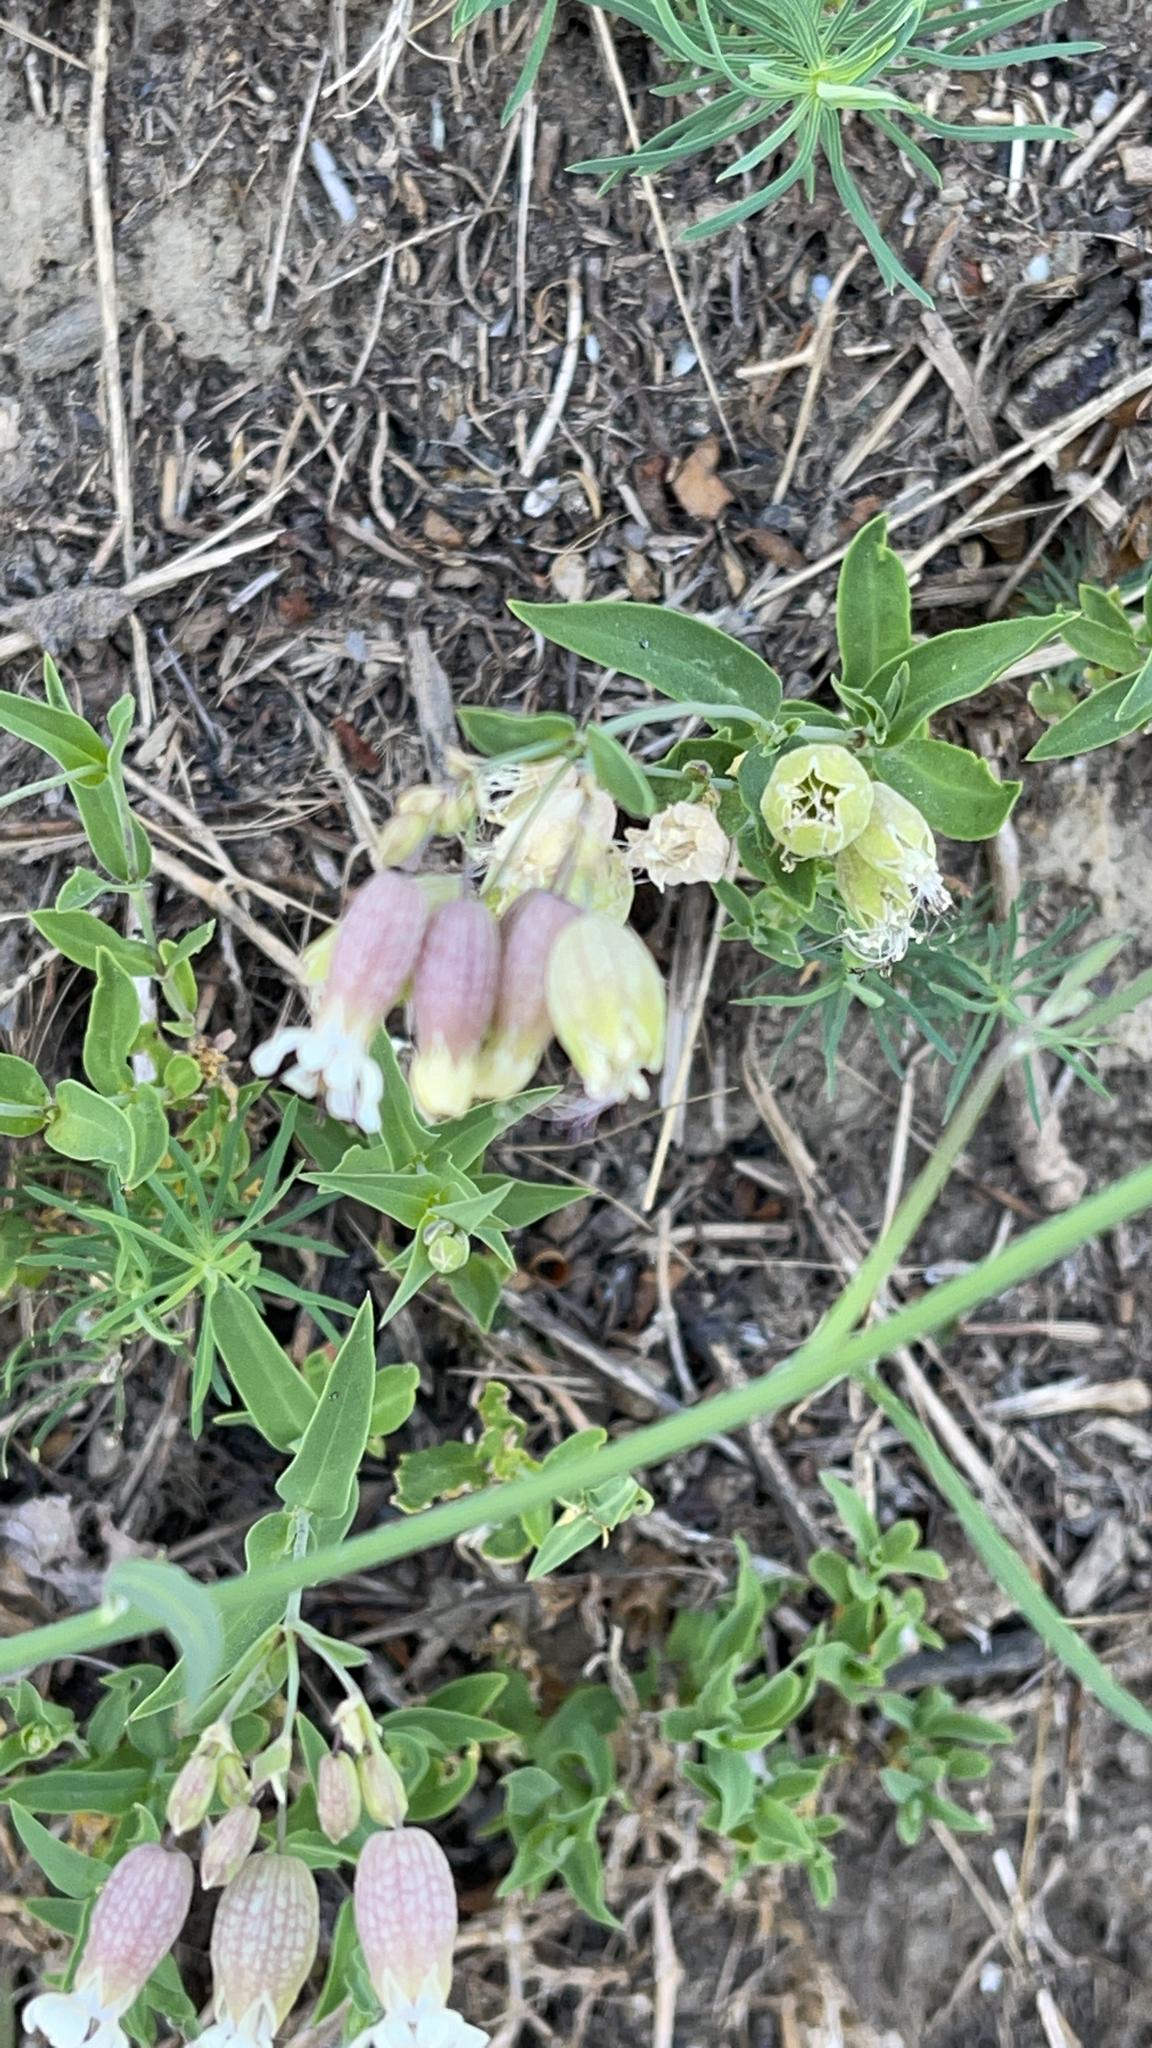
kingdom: Plantae
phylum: Tracheophyta
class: Magnoliopsida
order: Caryophyllales
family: Caryophyllaceae
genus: Silene
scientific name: Silene vulgaris
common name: Bladder campion
